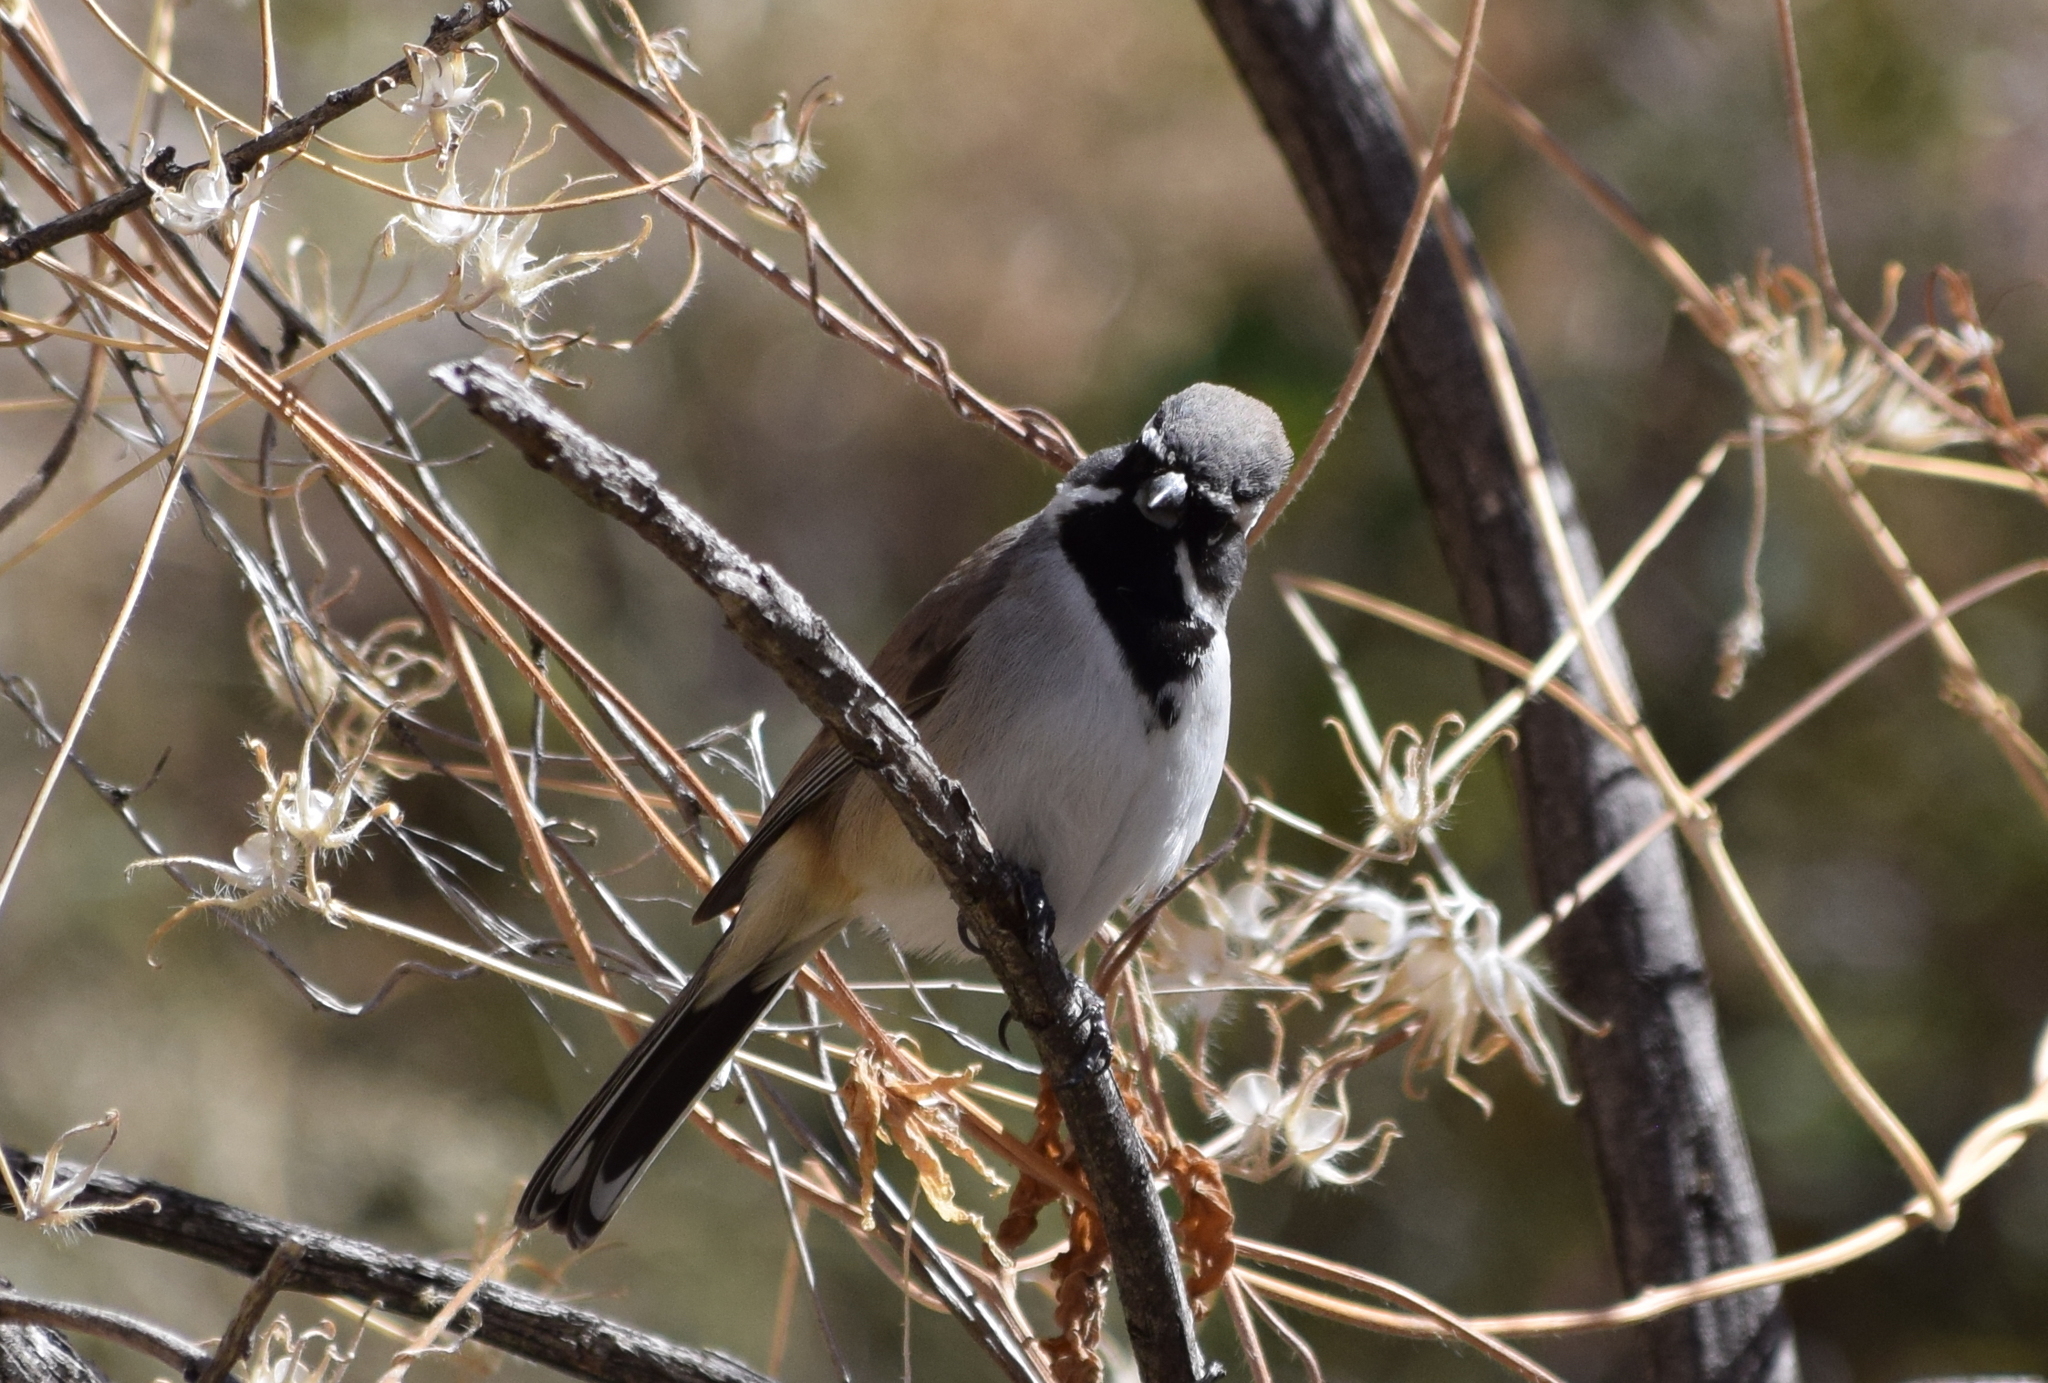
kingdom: Animalia
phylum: Chordata
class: Aves
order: Passeriformes
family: Passerellidae
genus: Amphispiza
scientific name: Amphispiza bilineata
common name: Black-throated sparrow
